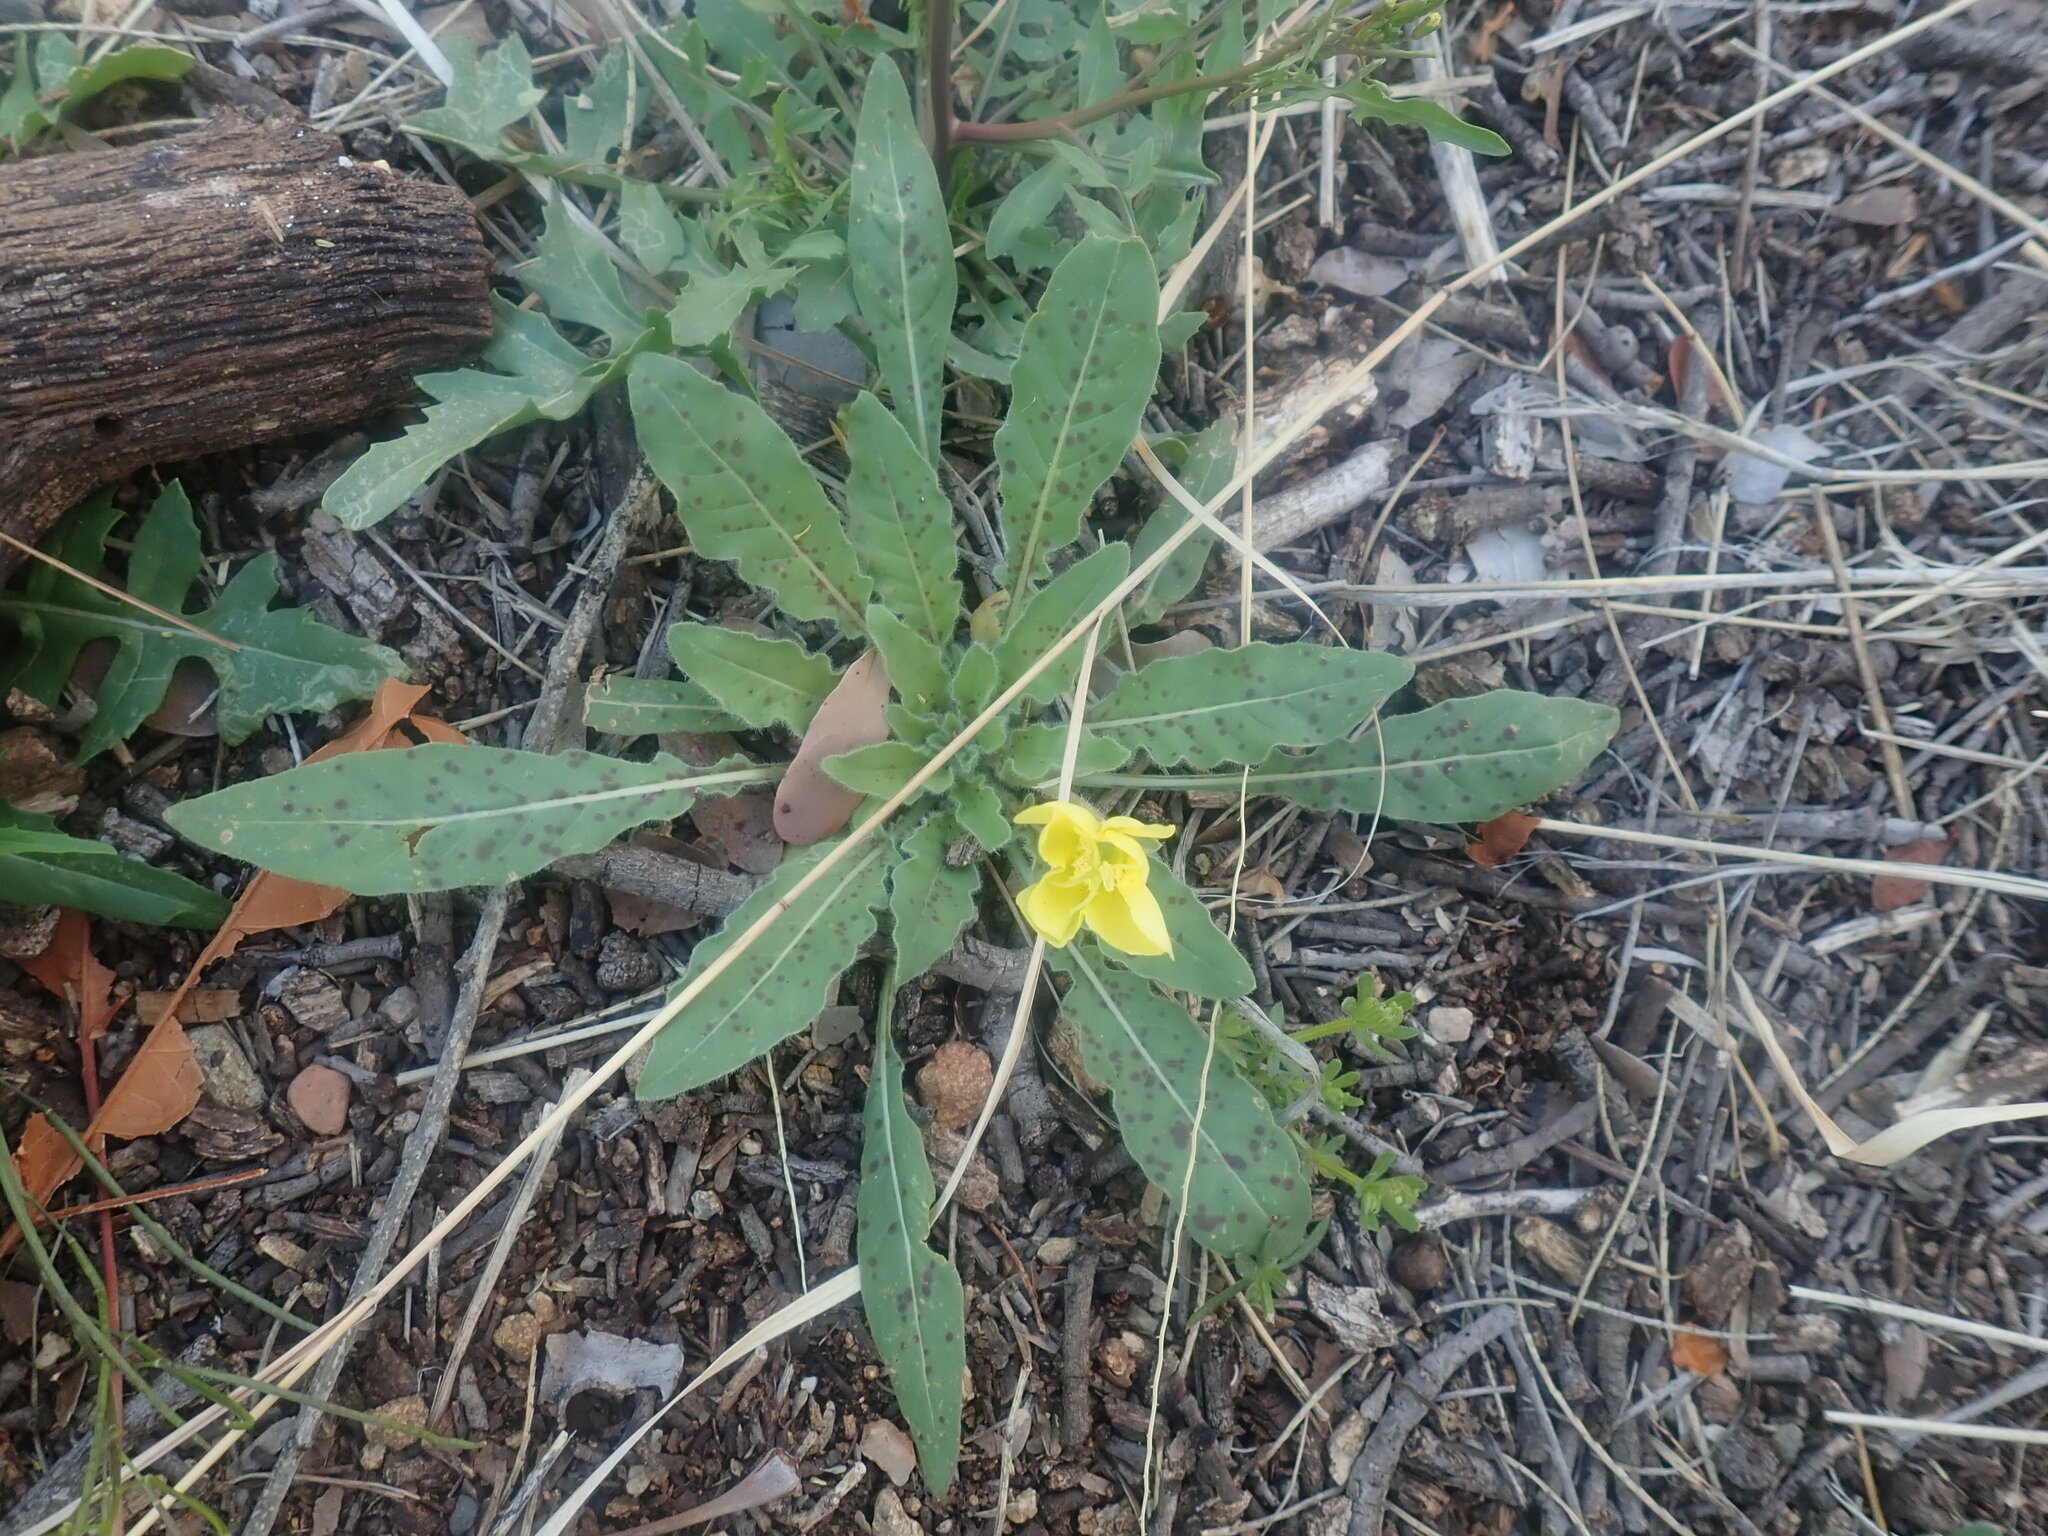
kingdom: Plantae
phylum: Tracheophyta
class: Magnoliopsida
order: Myrtales
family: Onagraceae
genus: Oenothera
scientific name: Oenothera primiveris
